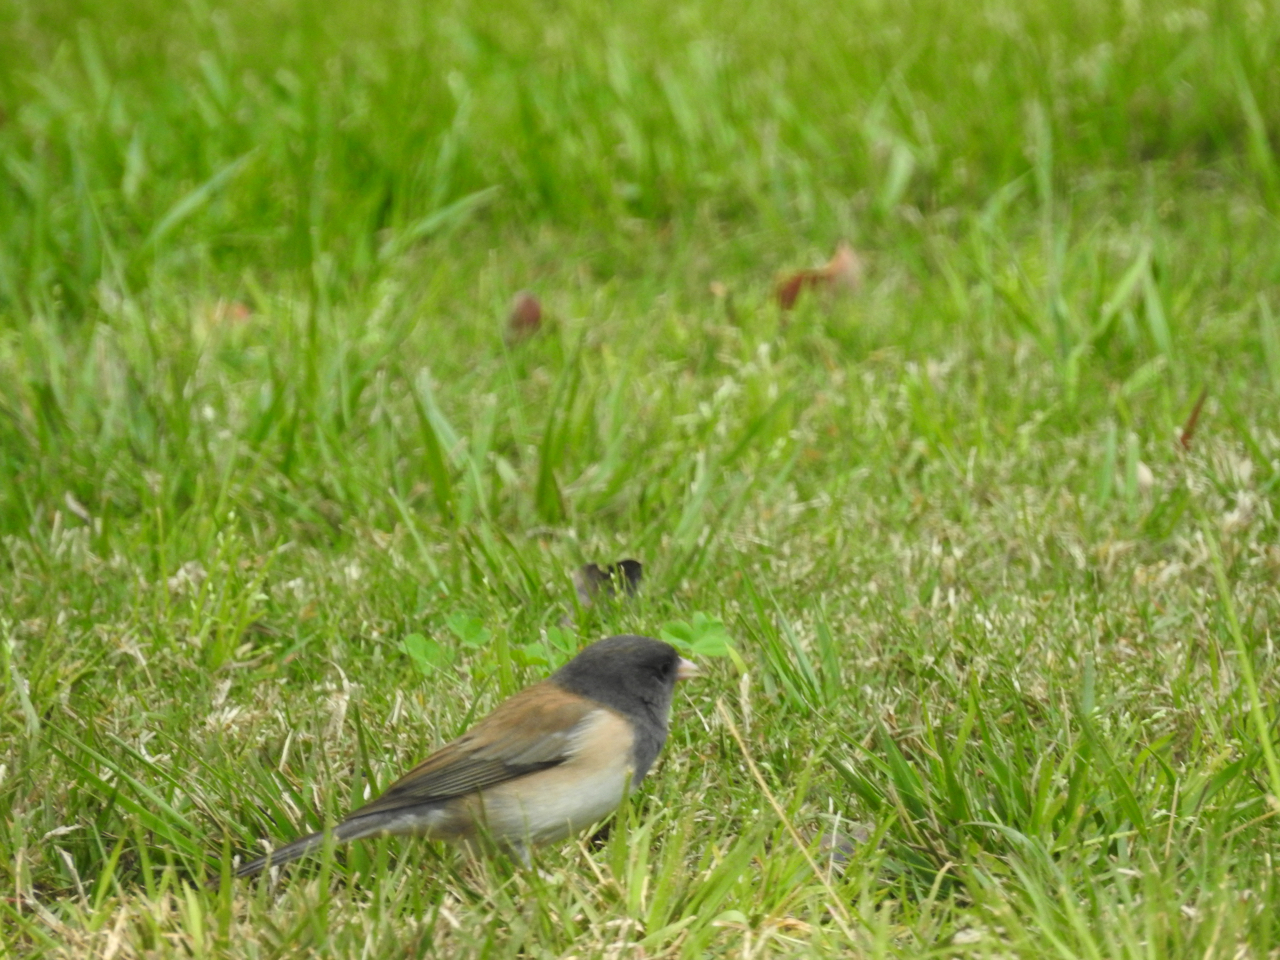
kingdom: Animalia
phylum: Chordata
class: Aves
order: Passeriformes
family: Passerellidae
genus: Junco
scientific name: Junco hyemalis
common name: Dark-eyed junco
